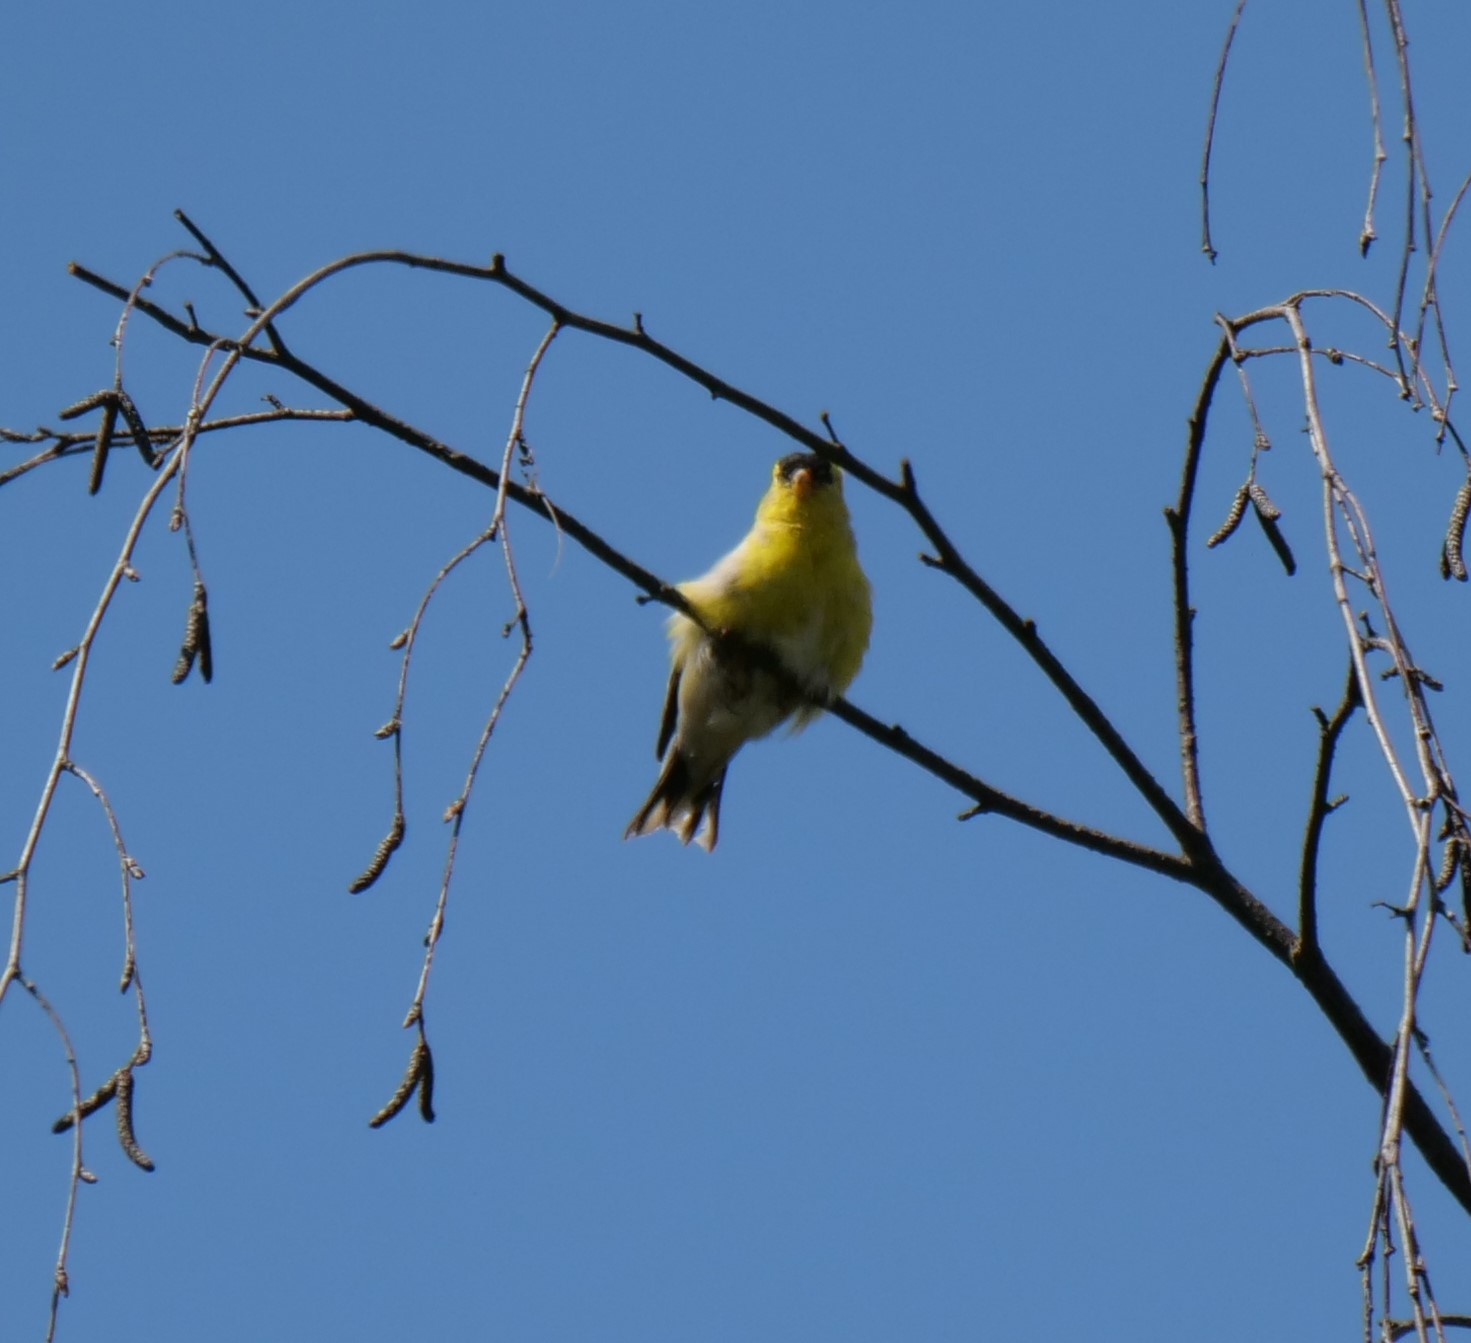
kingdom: Animalia
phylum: Chordata
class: Aves
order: Passeriformes
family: Fringillidae
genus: Spinus
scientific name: Spinus tristis
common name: American goldfinch
